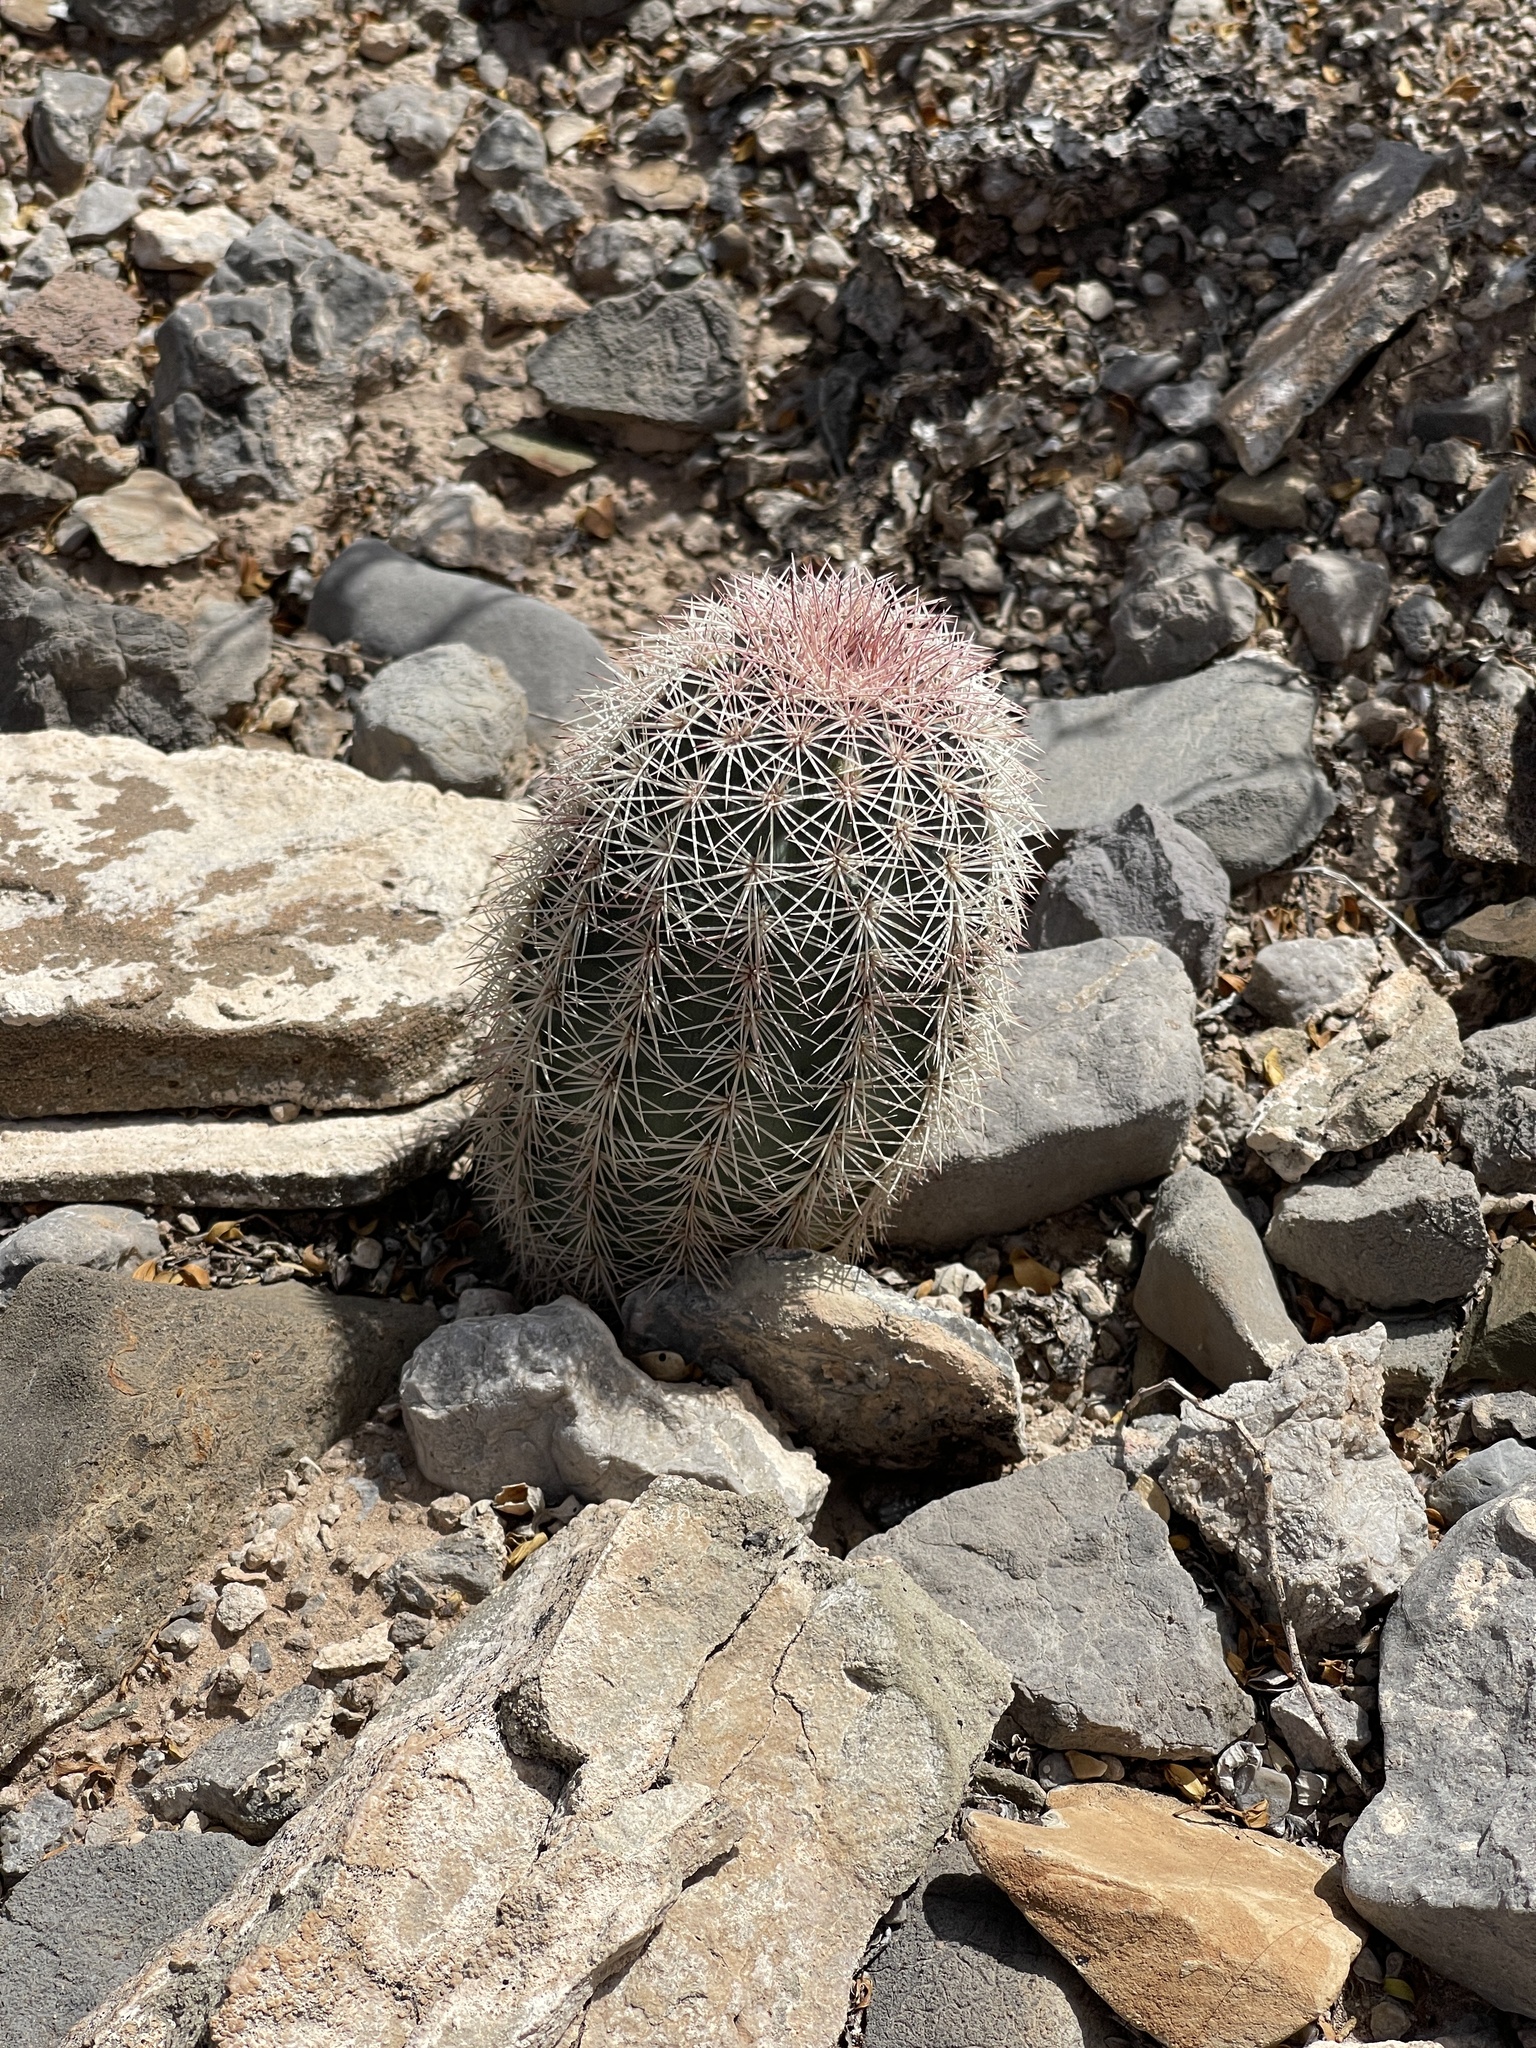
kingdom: Plantae
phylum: Tracheophyta
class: Magnoliopsida
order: Caryophyllales
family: Cactaceae
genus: Echinocereus
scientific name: Echinocereus dasyacanthus
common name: Spiny hedgehog cactus
